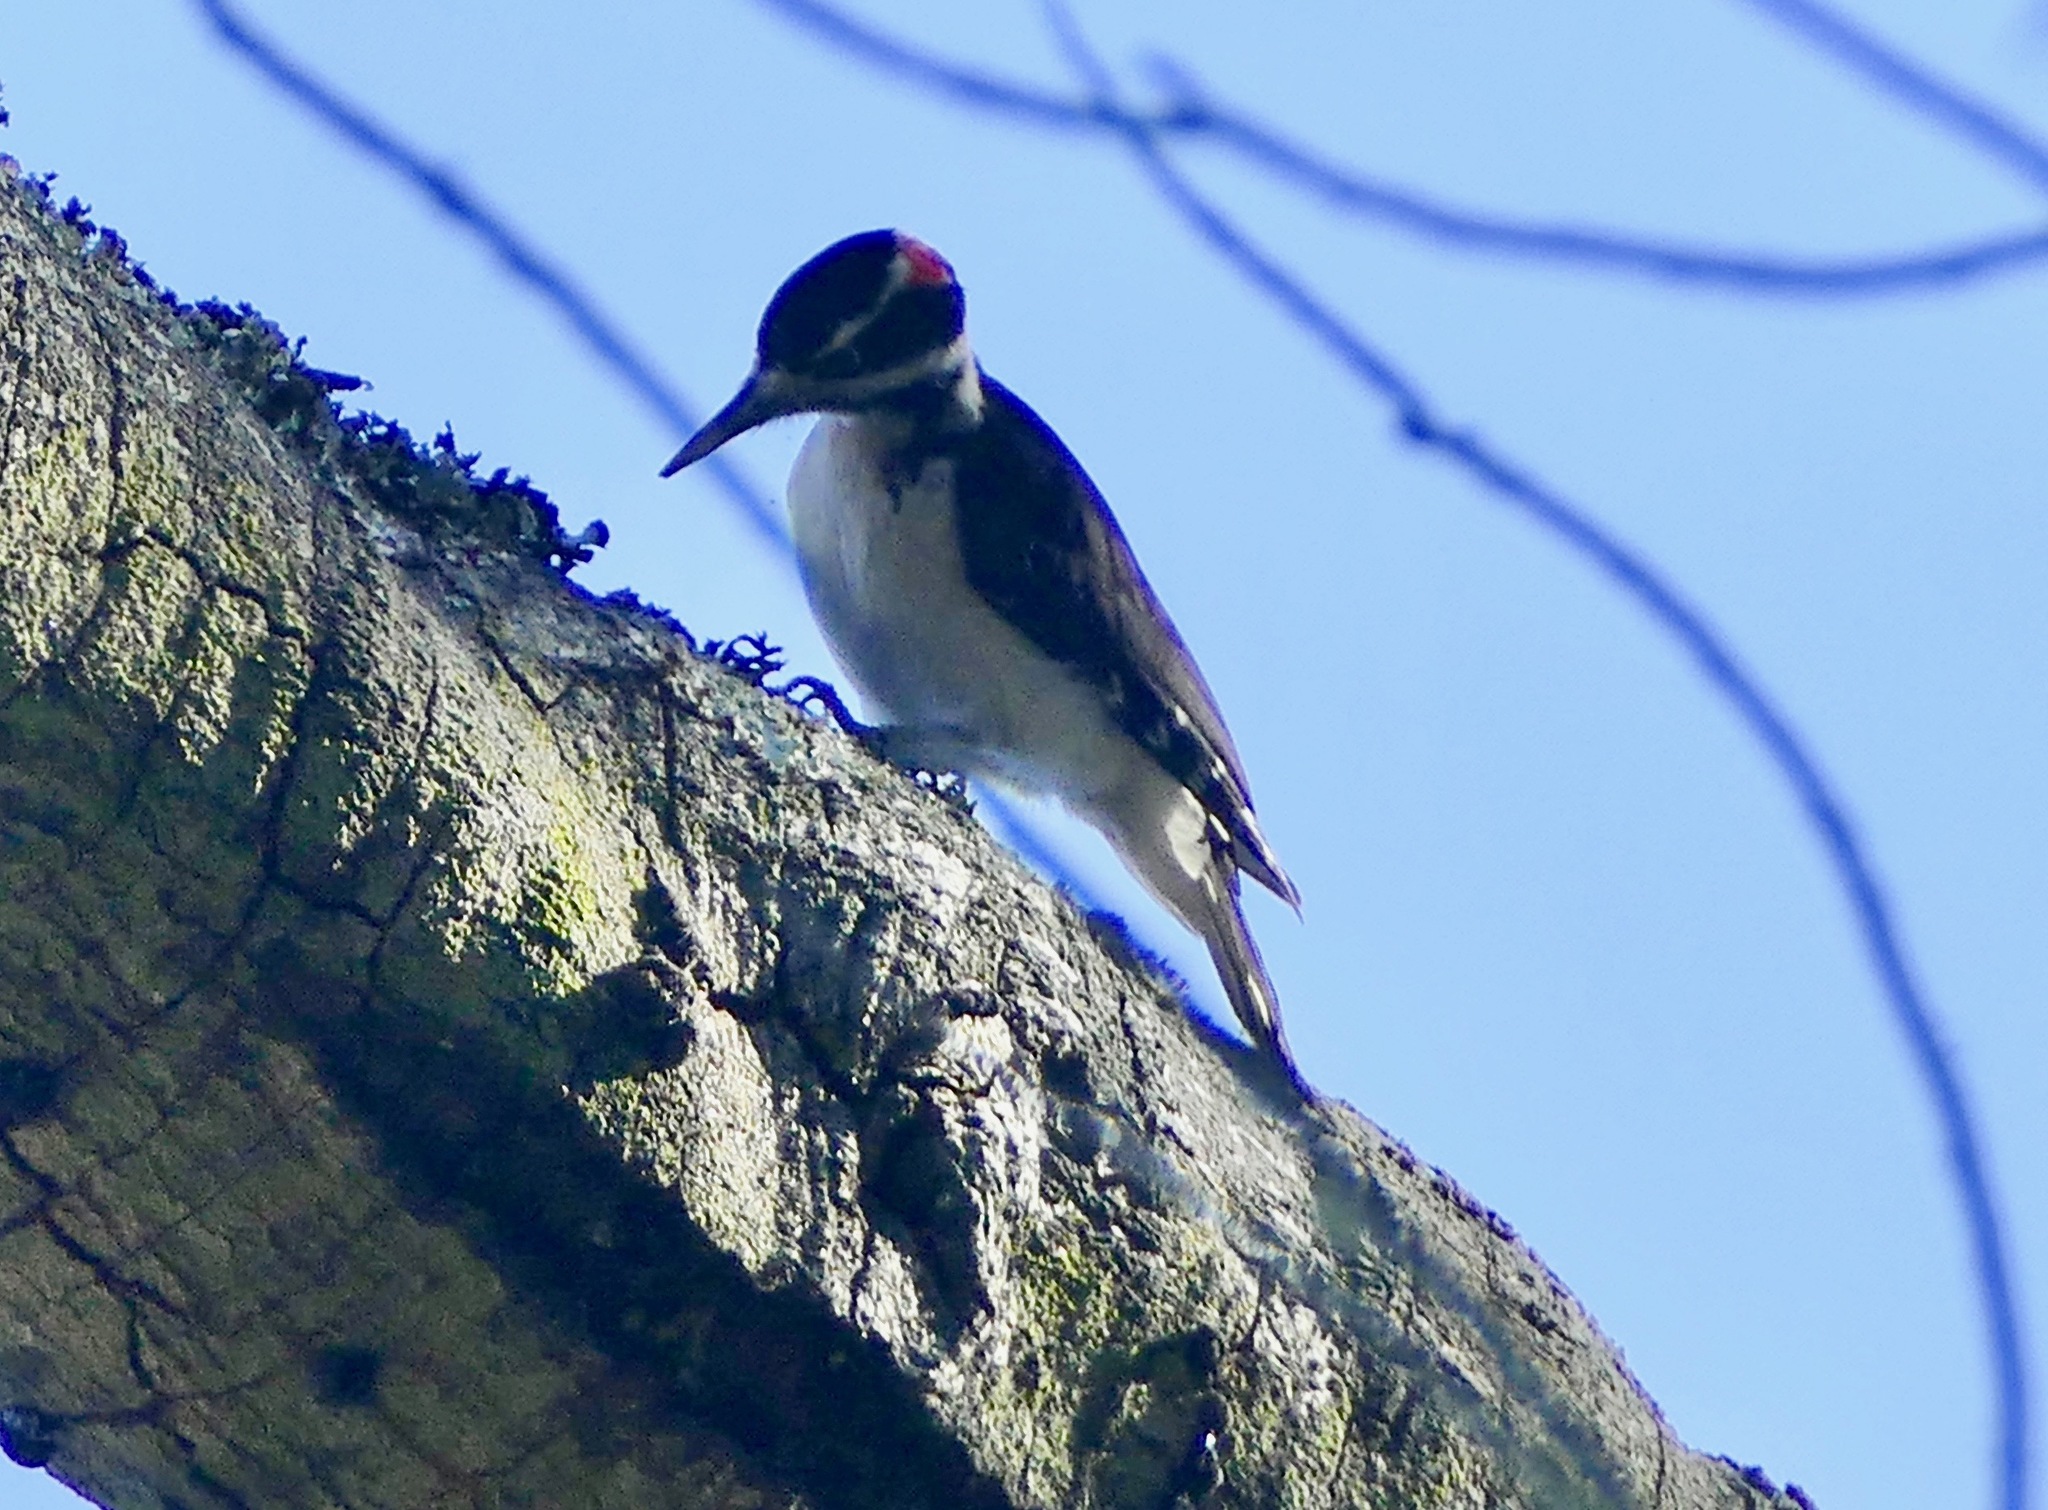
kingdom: Animalia
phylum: Chordata
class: Aves
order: Piciformes
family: Picidae
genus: Leuconotopicus
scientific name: Leuconotopicus villosus
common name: Hairy woodpecker
